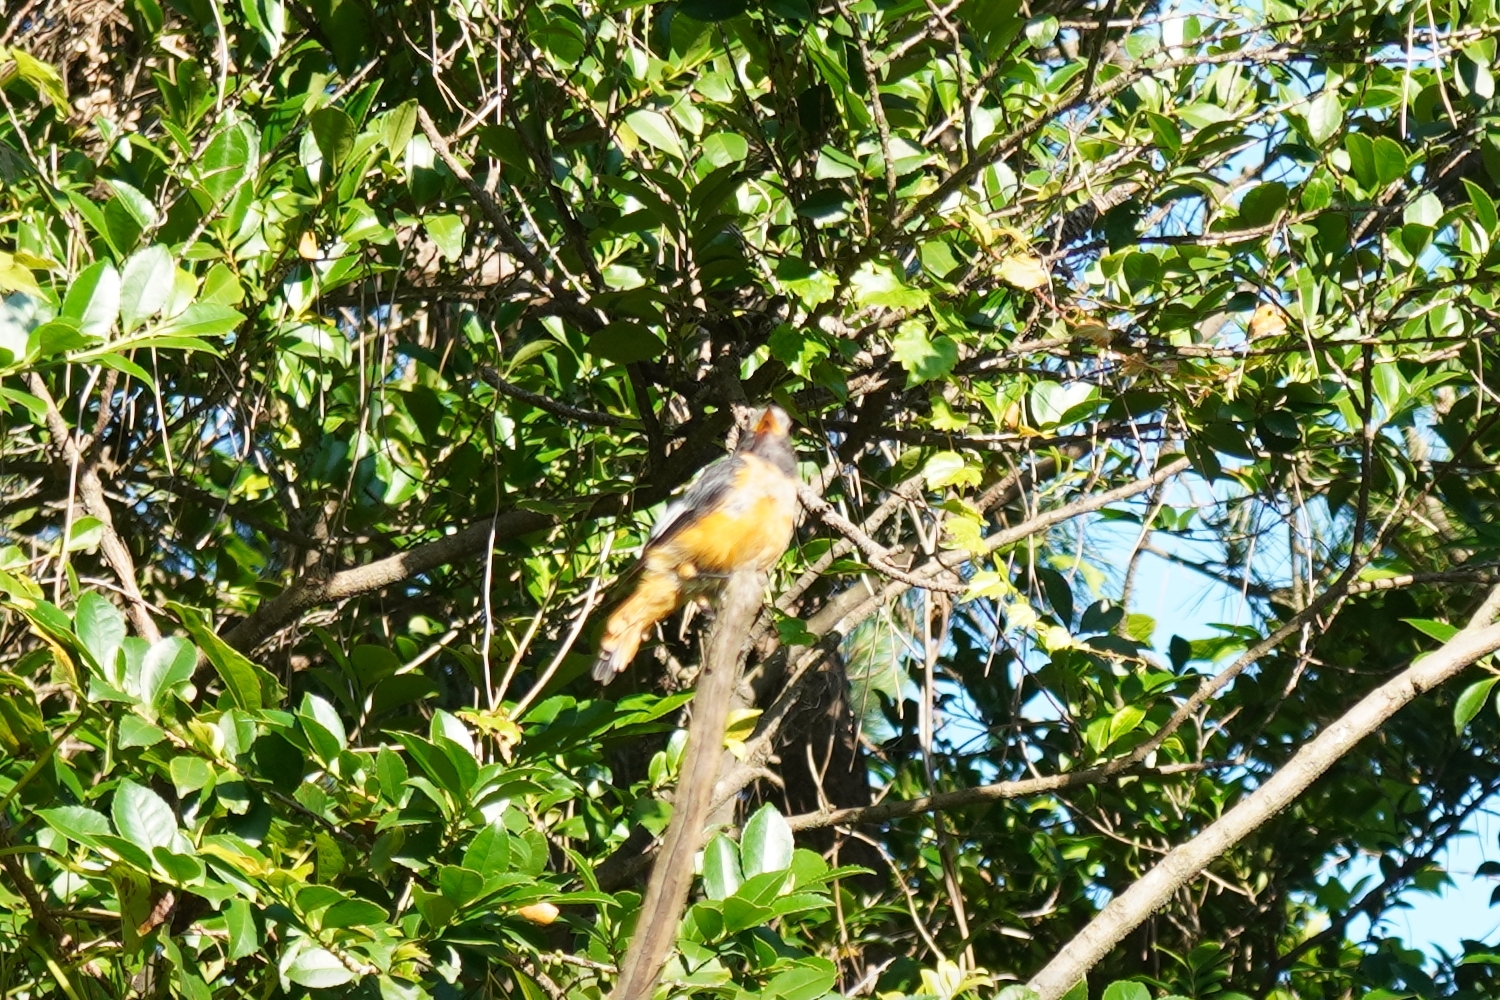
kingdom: Animalia
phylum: Chordata
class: Aves
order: Passeriformes
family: Muscicapidae
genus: Phoenicurus
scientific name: Phoenicurus auroreus
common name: Daurian redstart
